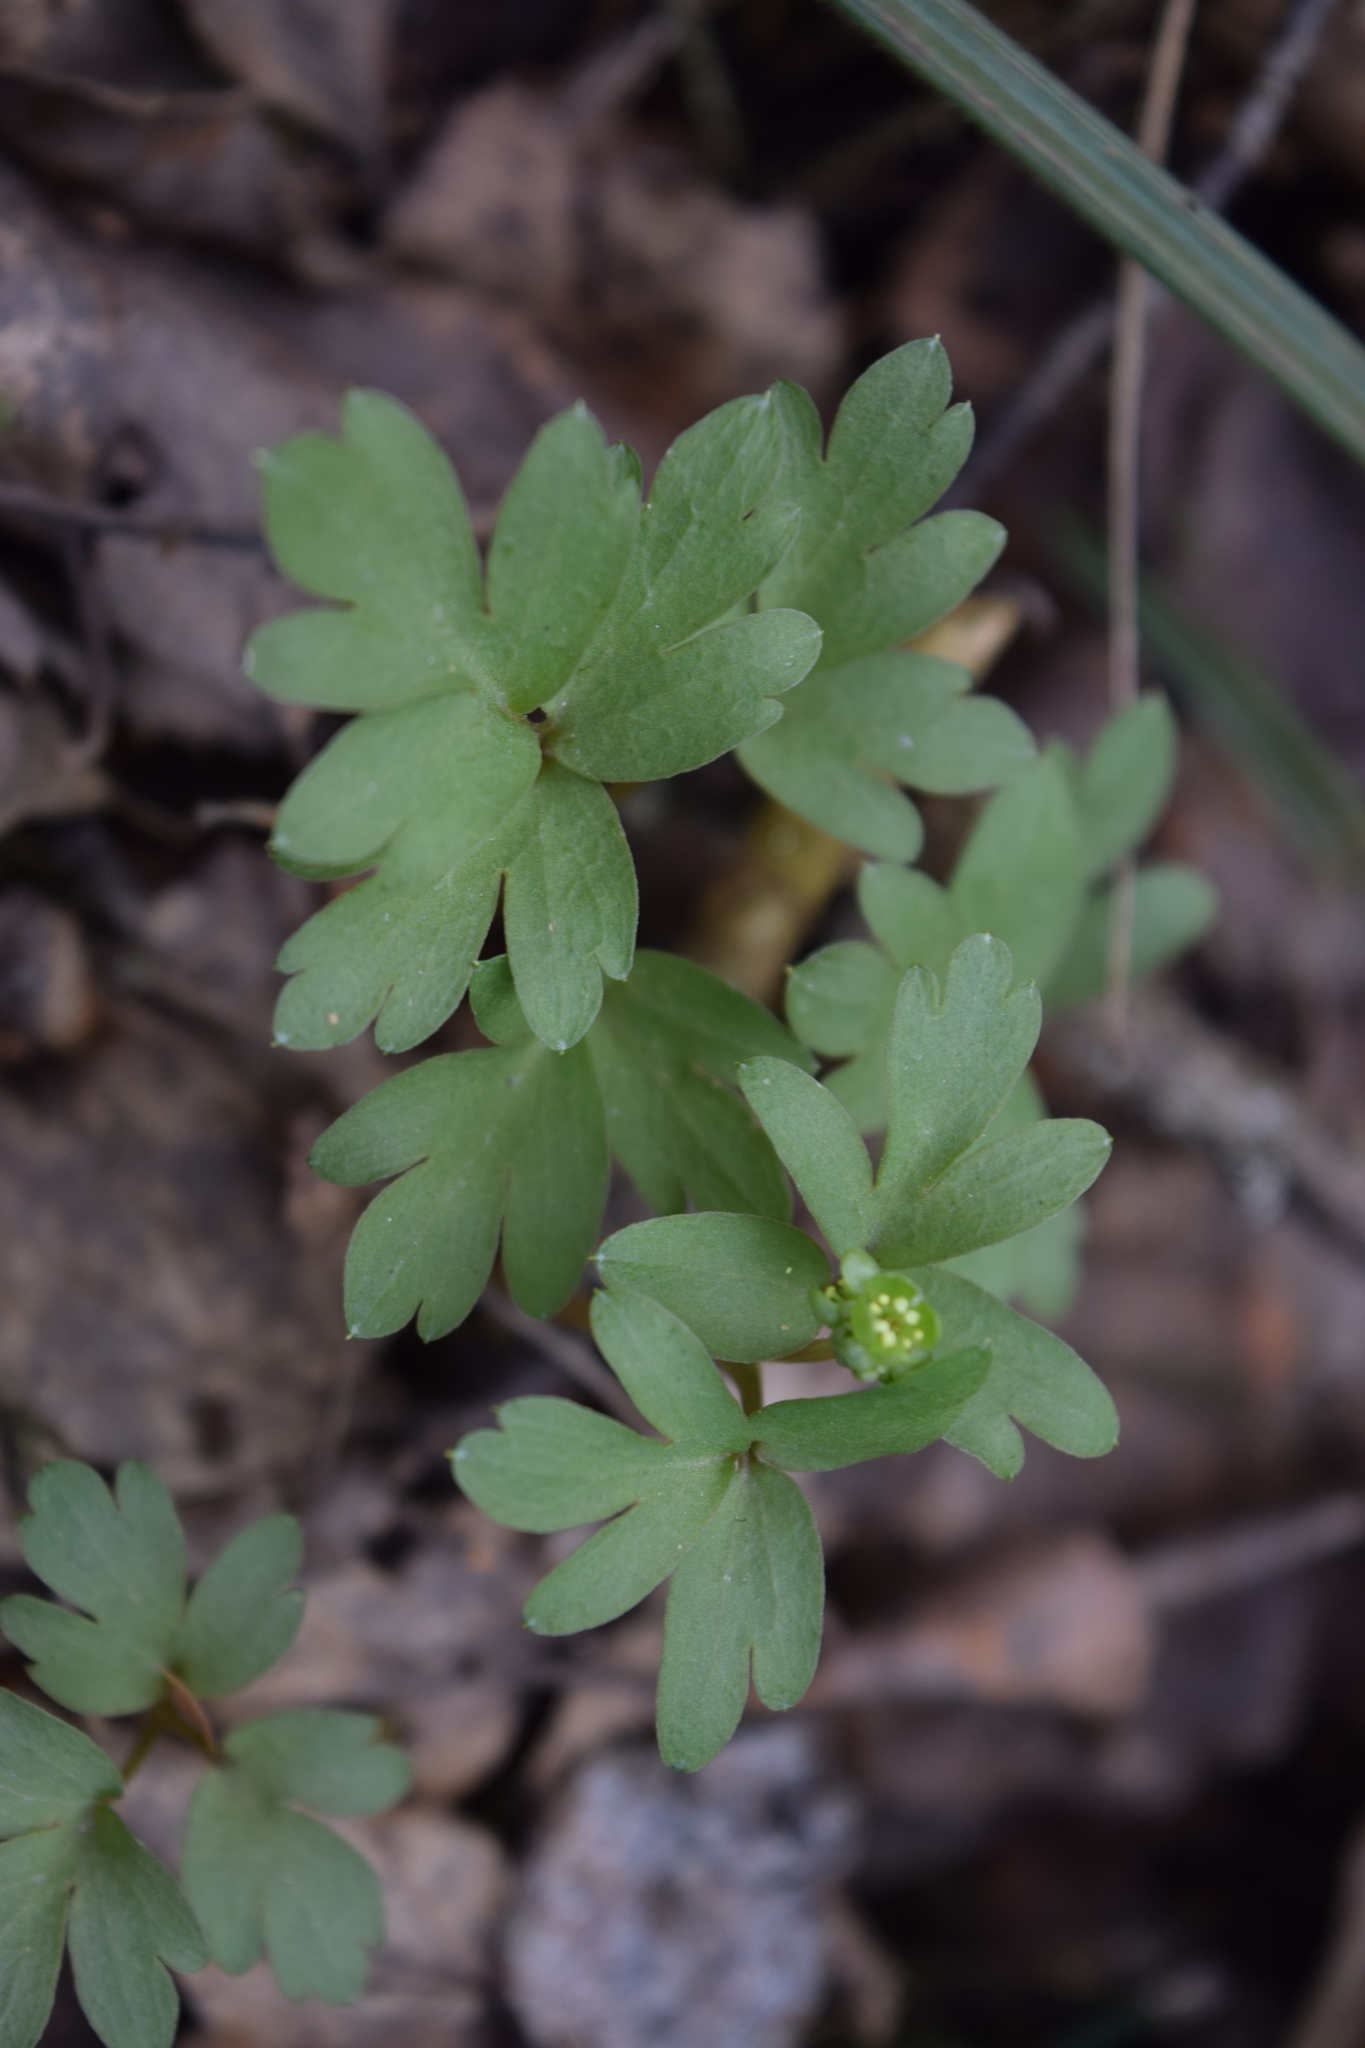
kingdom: Plantae
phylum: Tracheophyta
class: Magnoliopsida
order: Dipsacales
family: Viburnaceae
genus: Adoxa
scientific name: Adoxa moschatellina
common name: Moschatel
